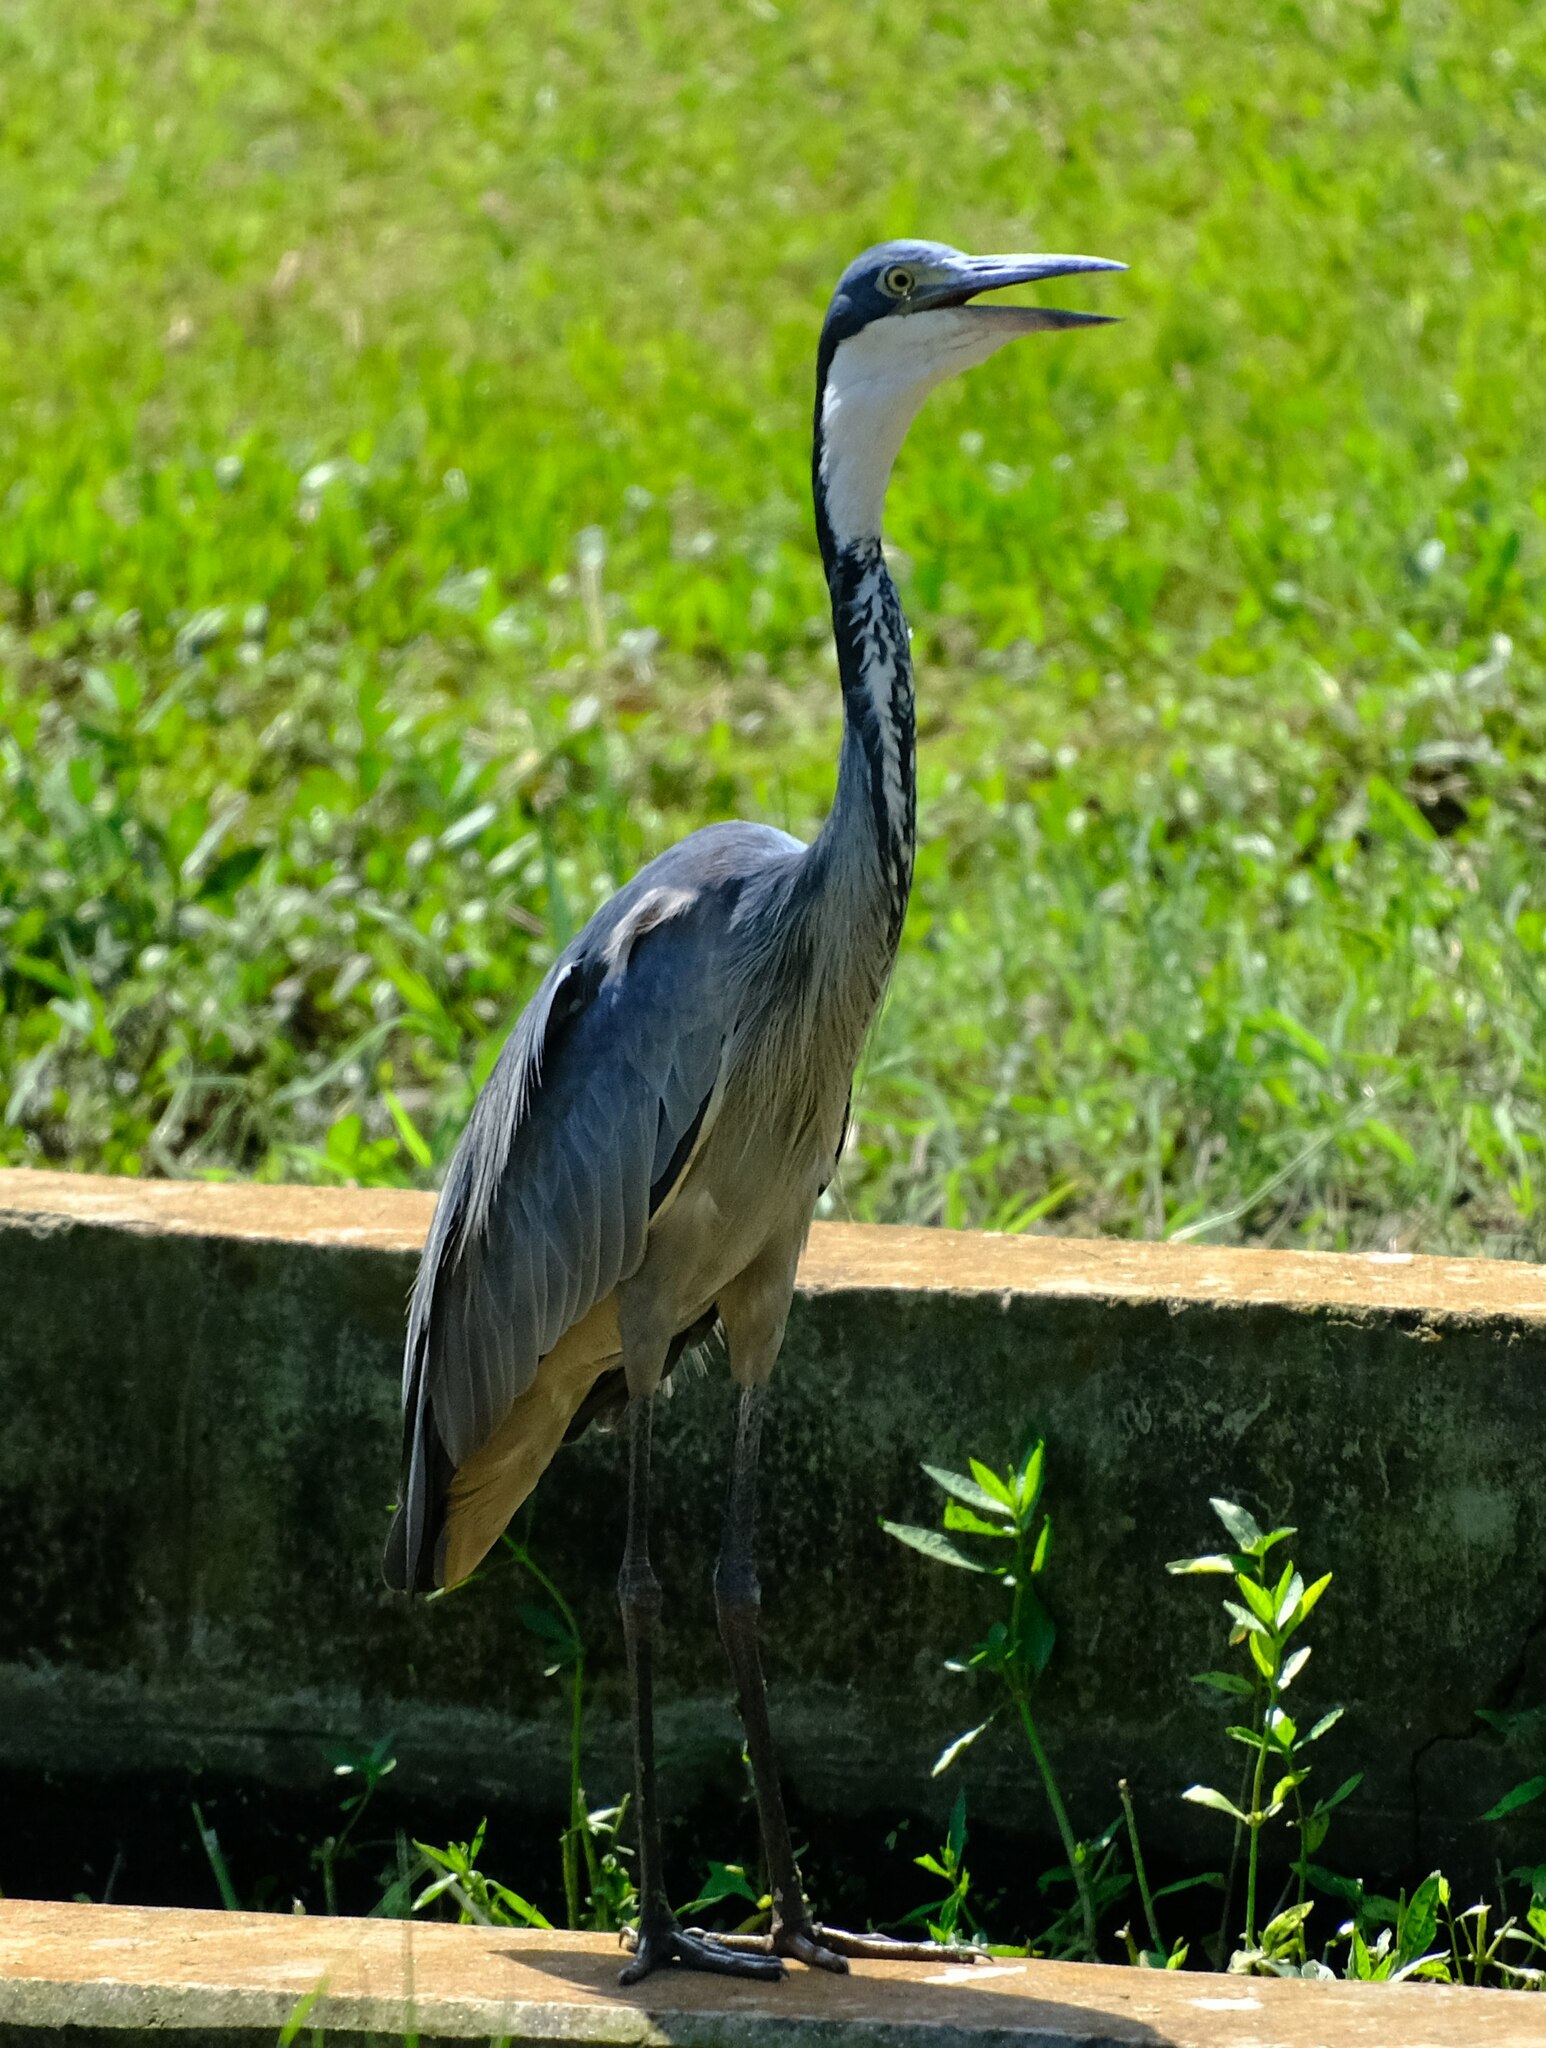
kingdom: Animalia
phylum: Chordata
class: Aves
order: Pelecaniformes
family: Ardeidae
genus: Ardea
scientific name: Ardea melanocephala
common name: Black-headed heron
